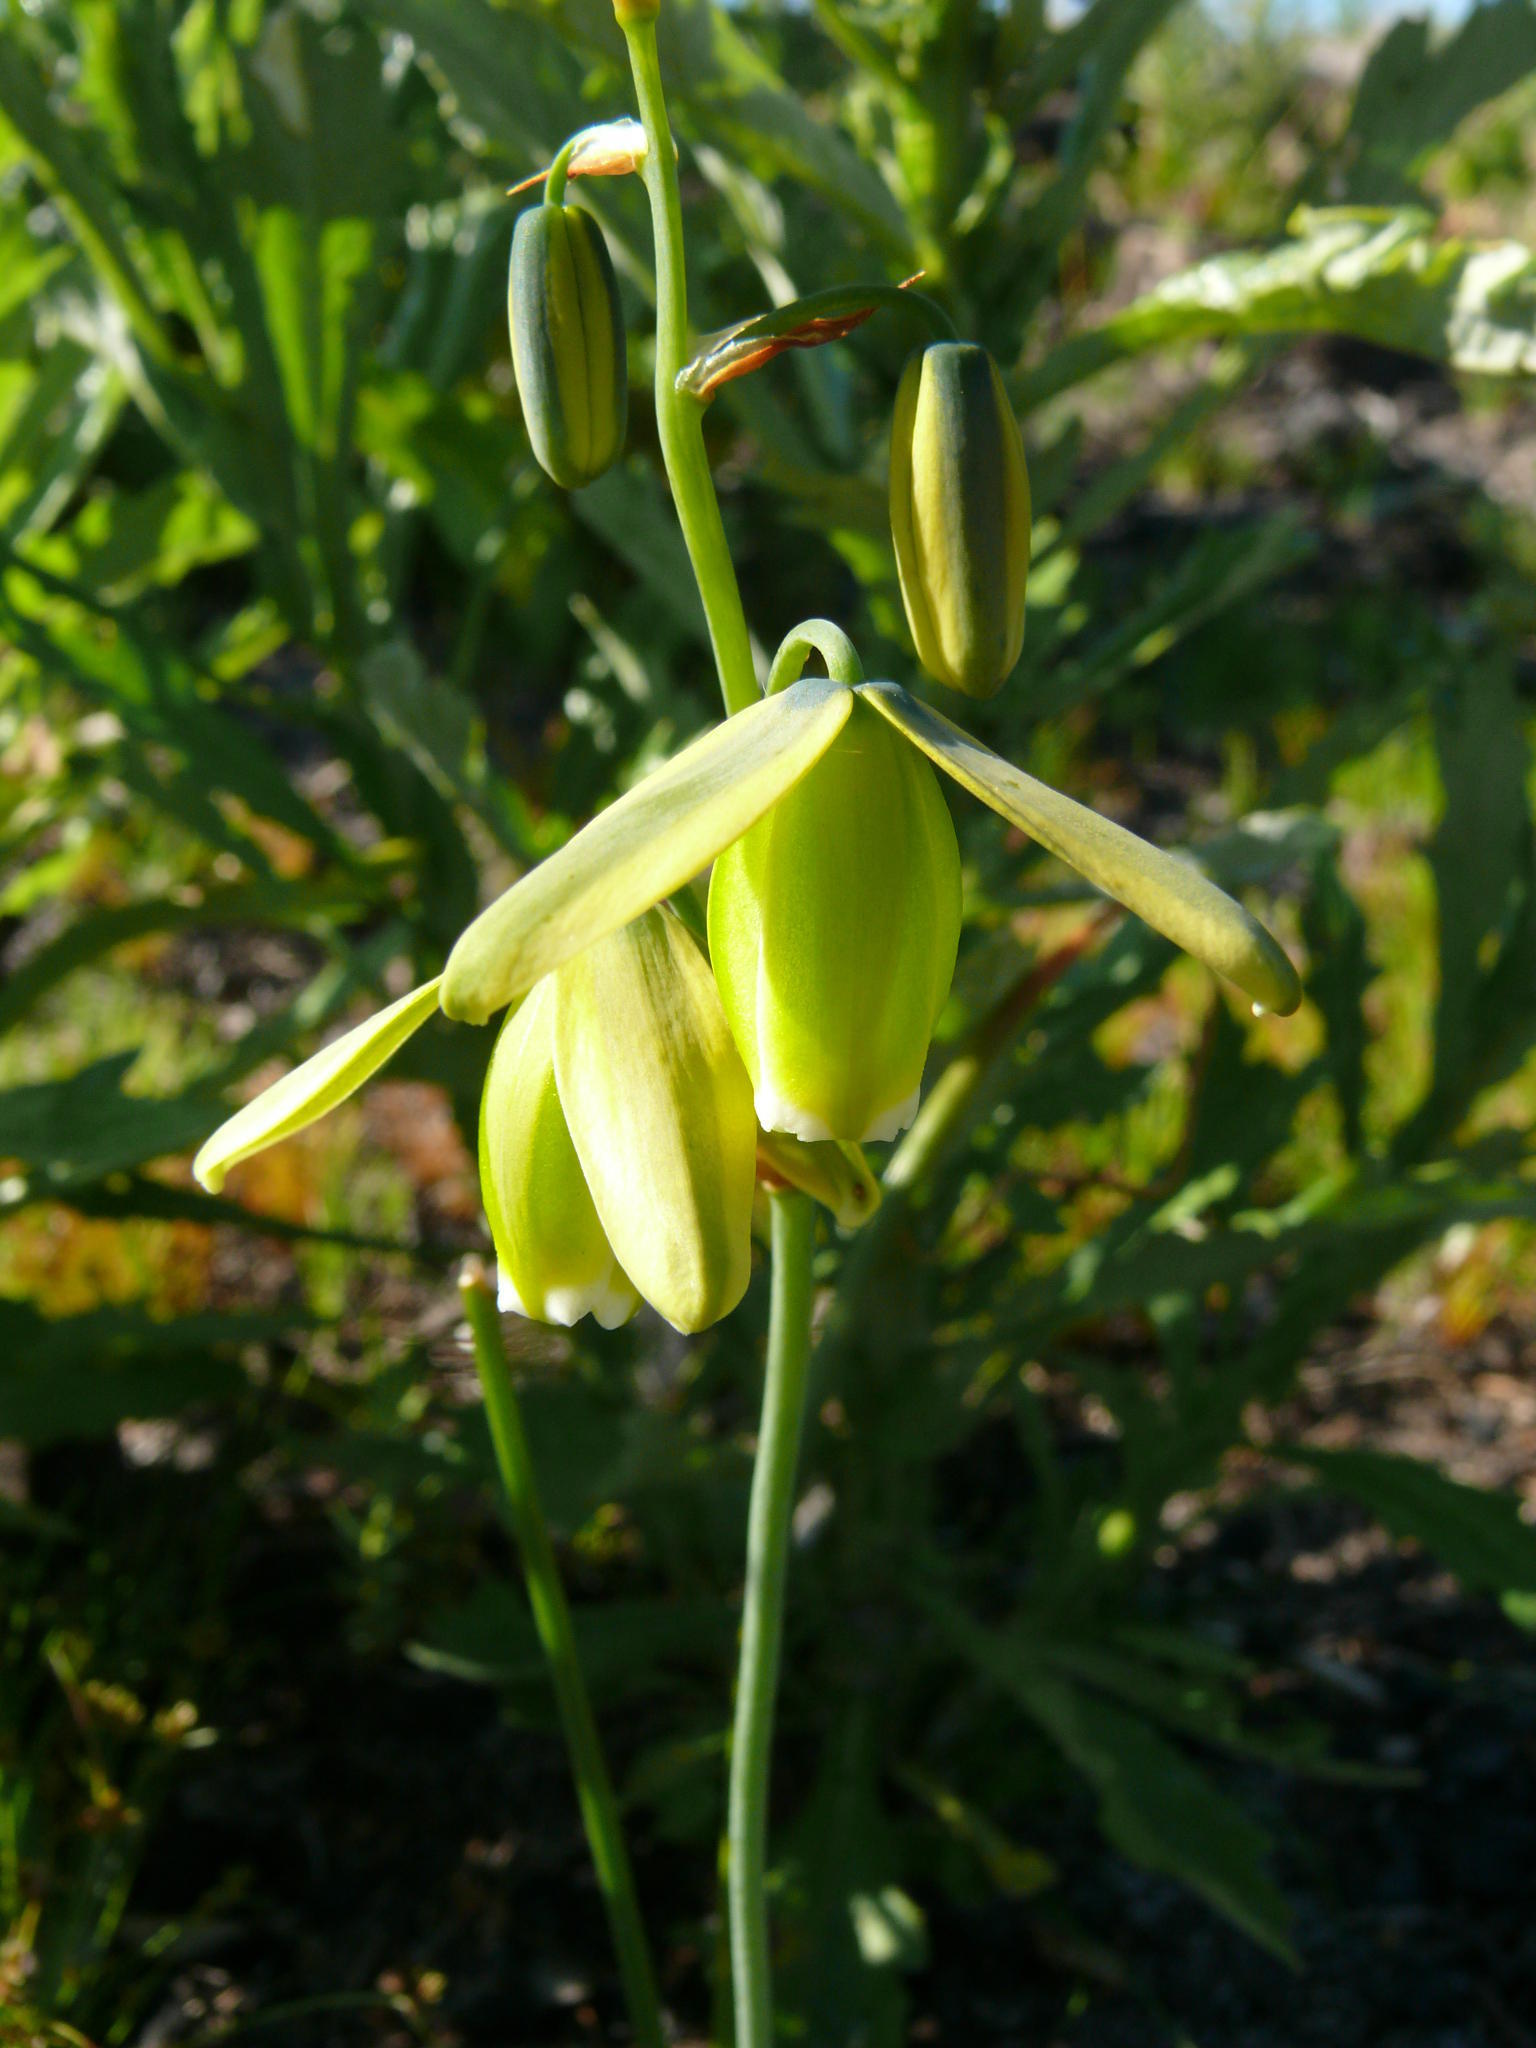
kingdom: Plantae
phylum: Tracheophyta
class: Liliopsida
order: Asparagales
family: Asparagaceae
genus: Albuca
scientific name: Albuca cooperi
